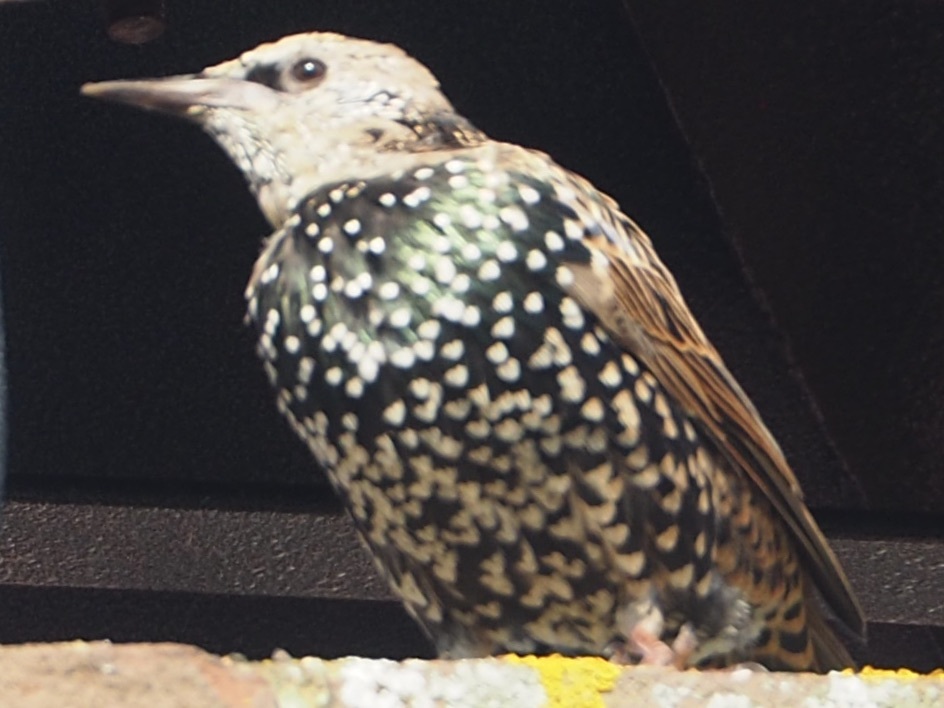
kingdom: Animalia
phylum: Chordata
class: Aves
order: Passeriformes
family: Sturnidae
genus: Sturnus
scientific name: Sturnus vulgaris
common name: Common starling
